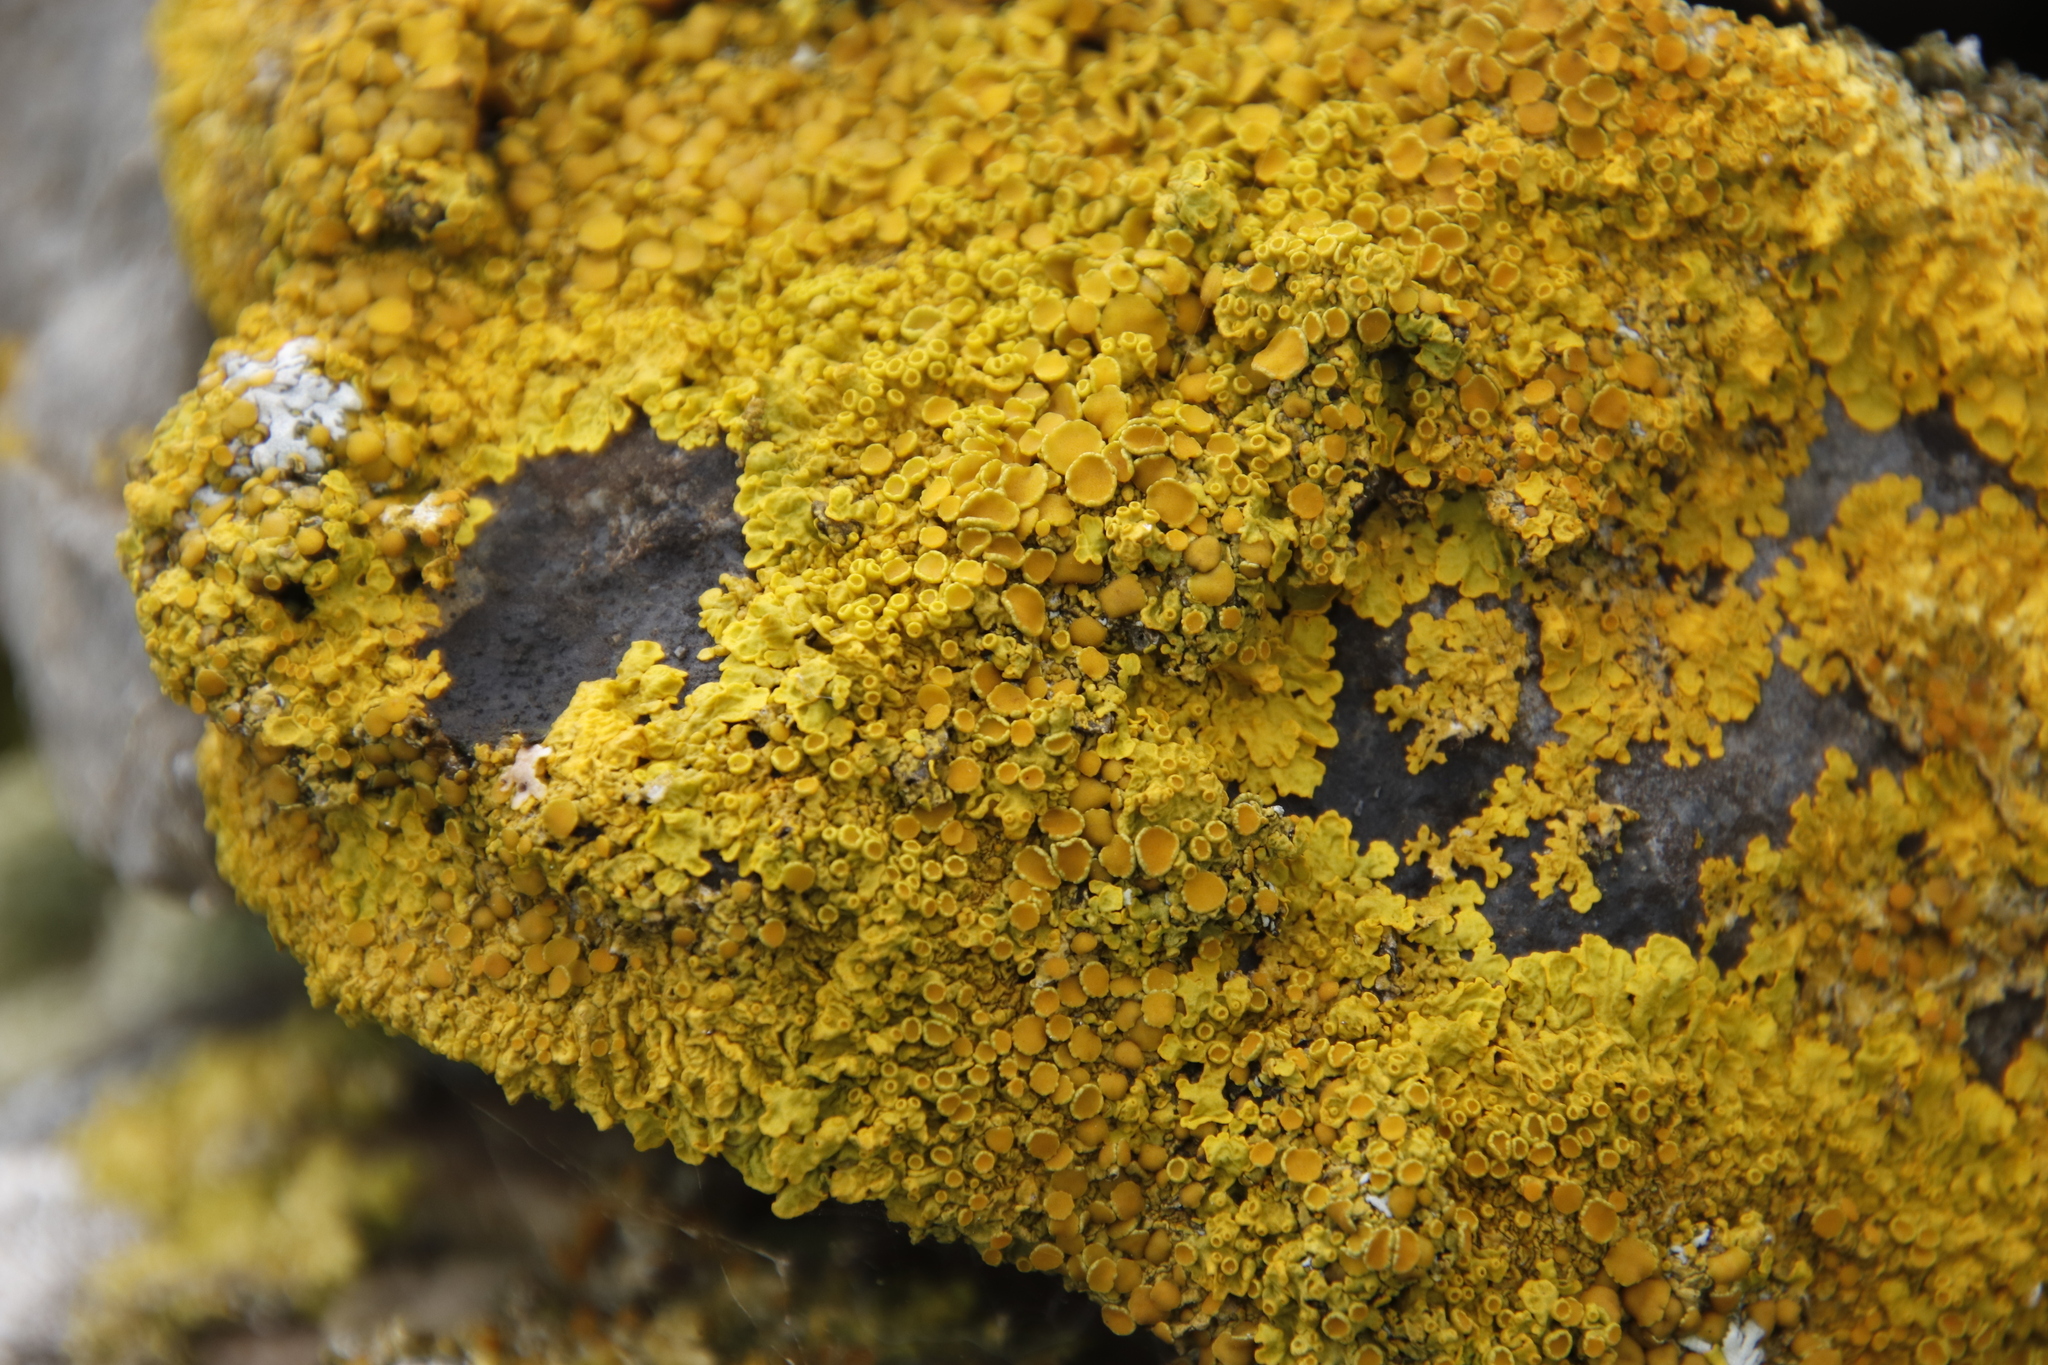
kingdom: Fungi
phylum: Ascomycota
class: Lecanoromycetes
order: Teloschistales
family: Teloschistaceae
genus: Xanthoria
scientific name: Xanthoria parietina
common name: Common orange lichen
